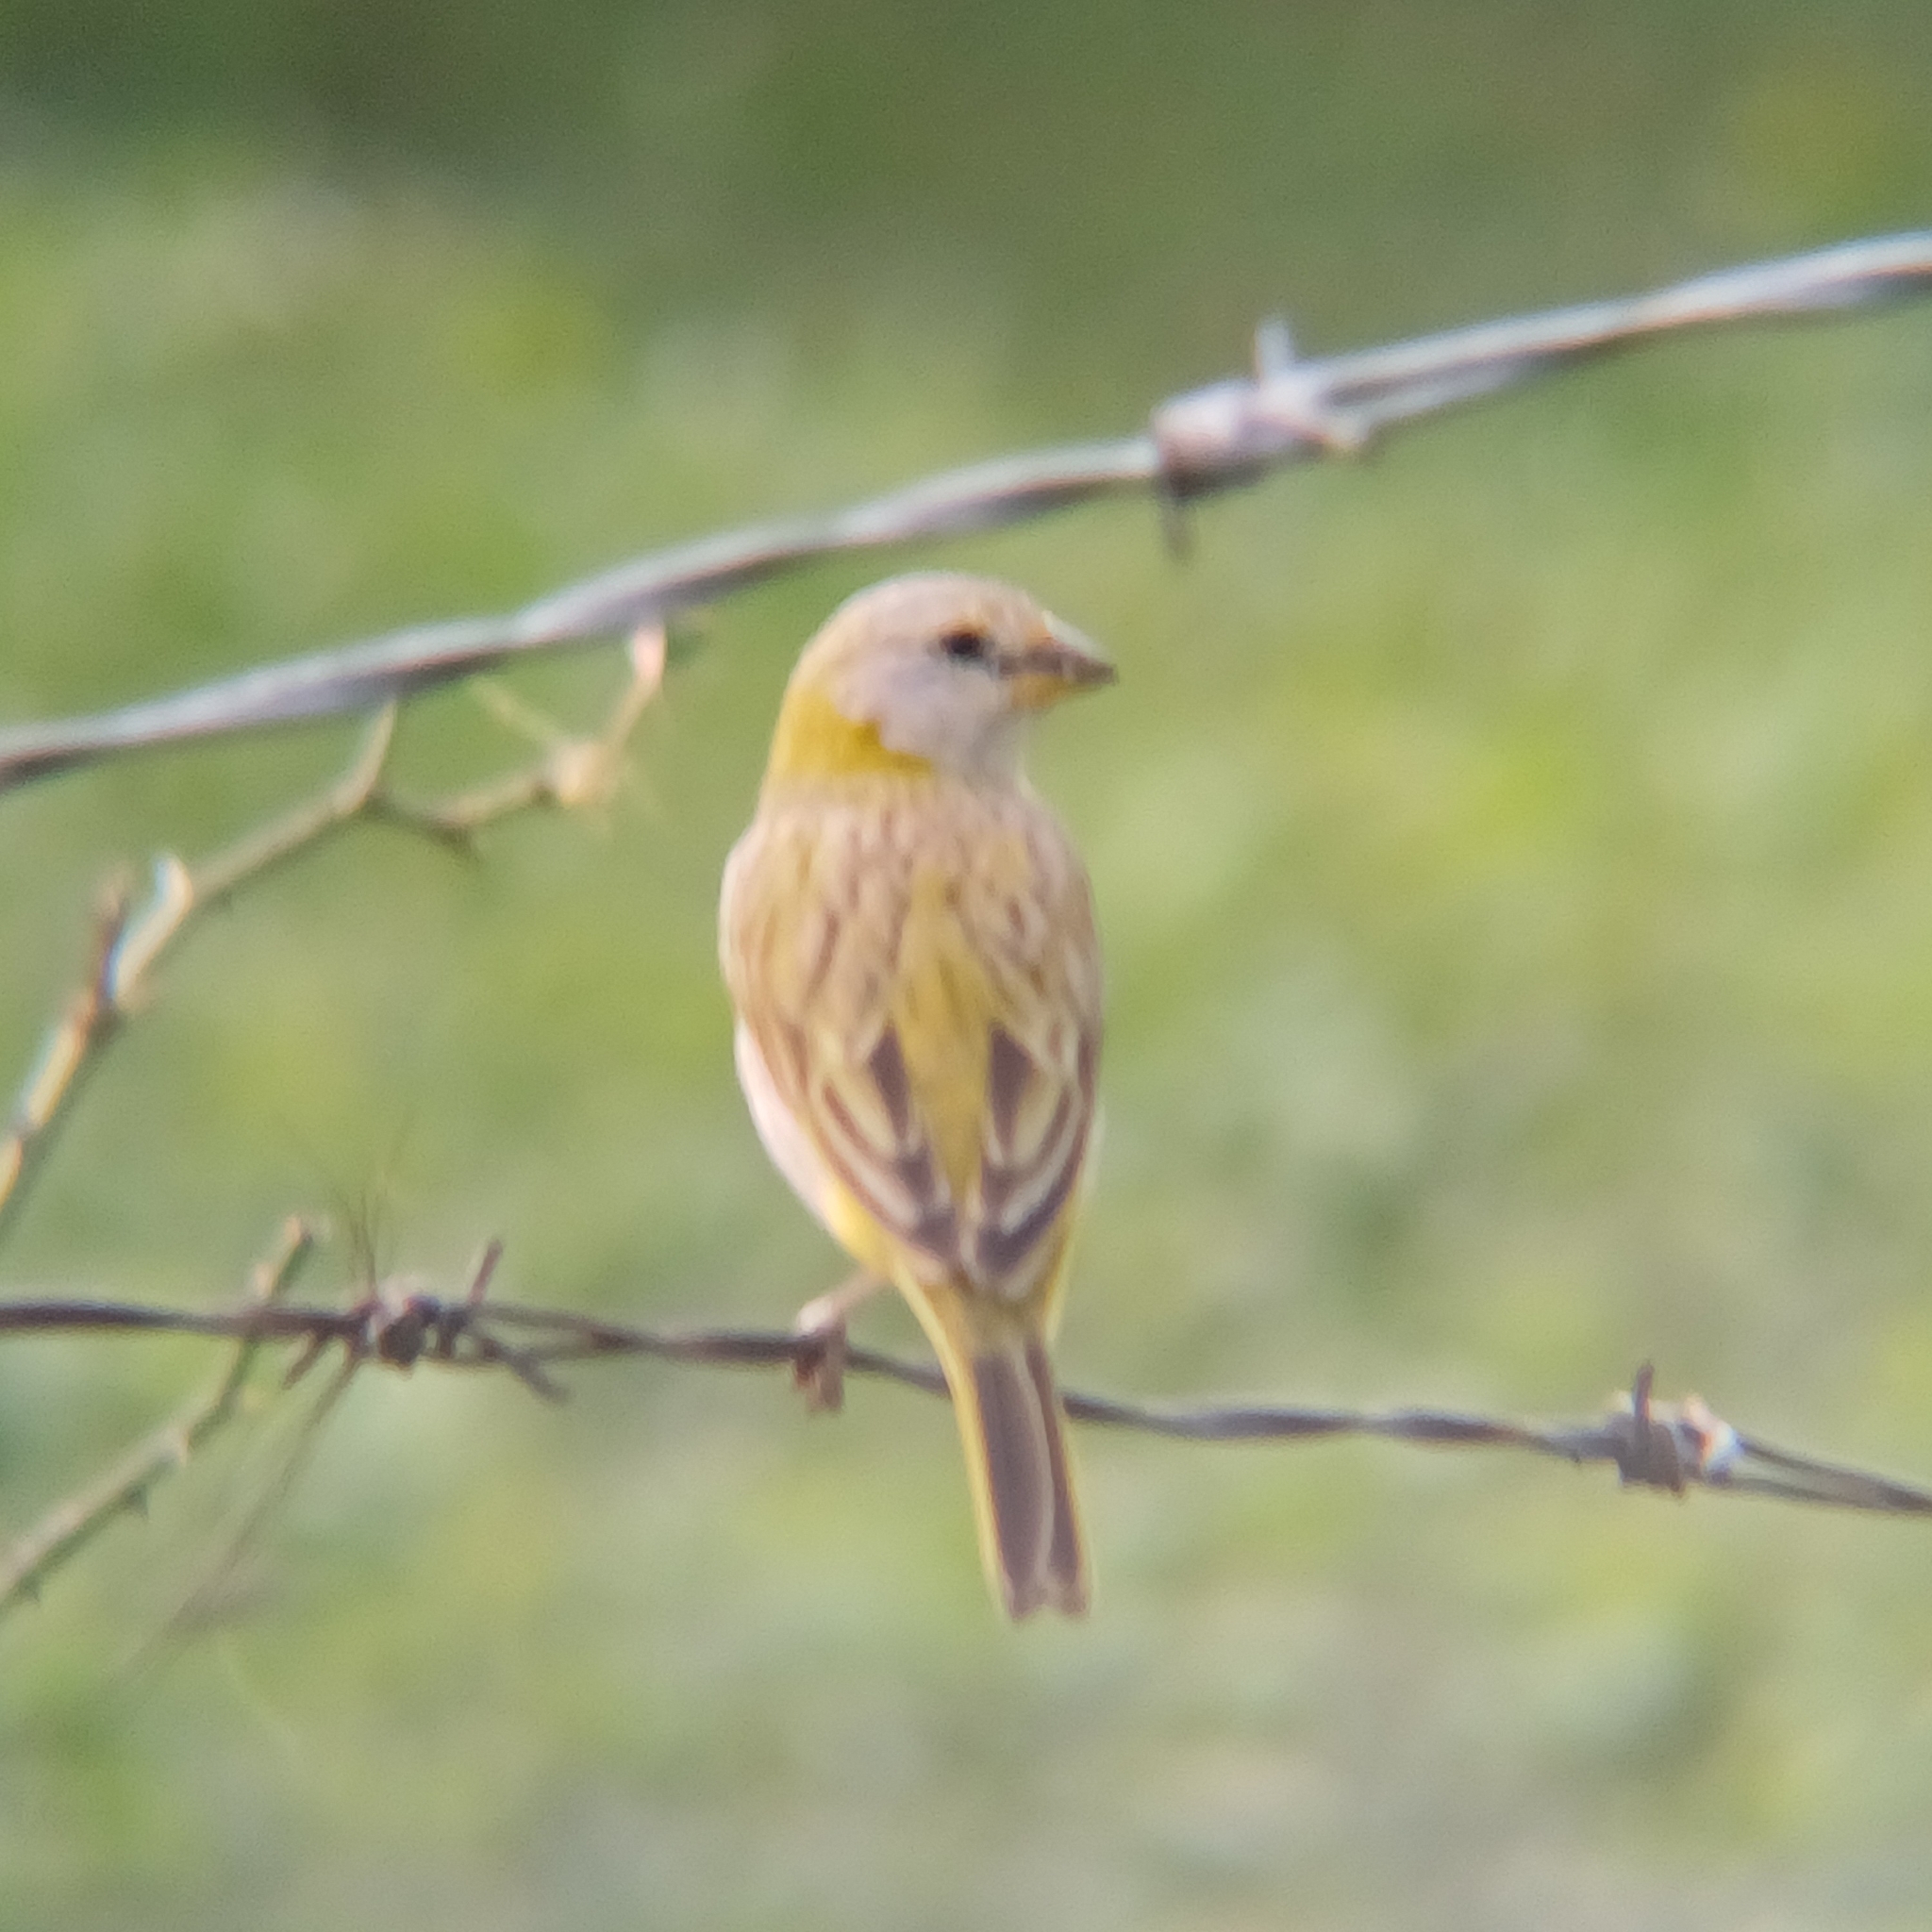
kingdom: Animalia
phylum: Chordata
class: Aves
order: Passeriformes
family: Thraupidae
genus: Sicalis
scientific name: Sicalis flaveola
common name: Saffron finch
